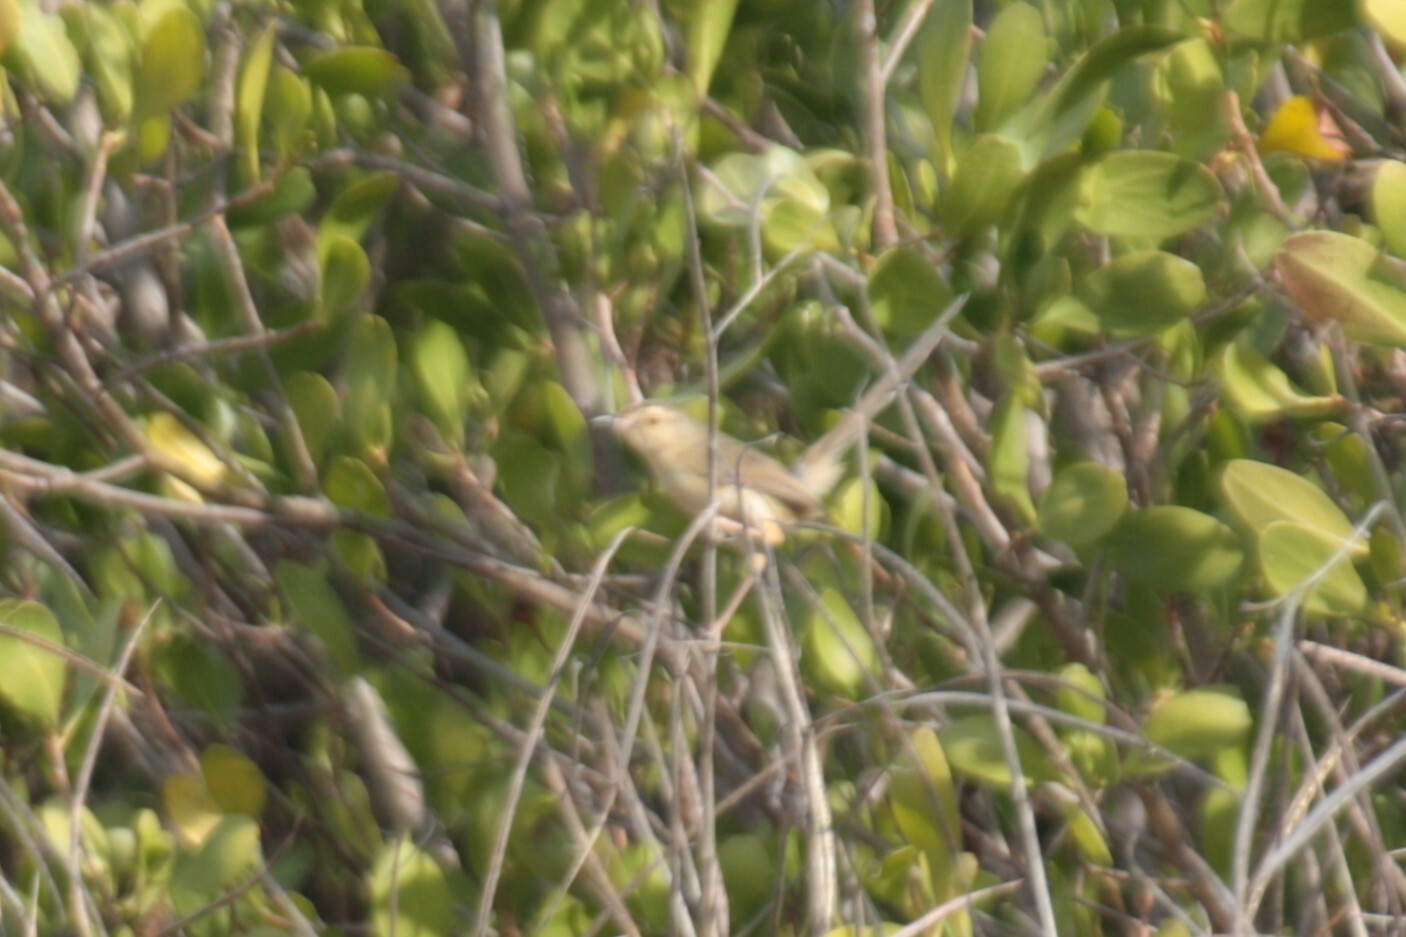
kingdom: Animalia
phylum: Chordata
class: Aves
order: Passeriformes
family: Cisticolidae
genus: Prinia
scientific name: Prinia inornata
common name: Plain prinia
